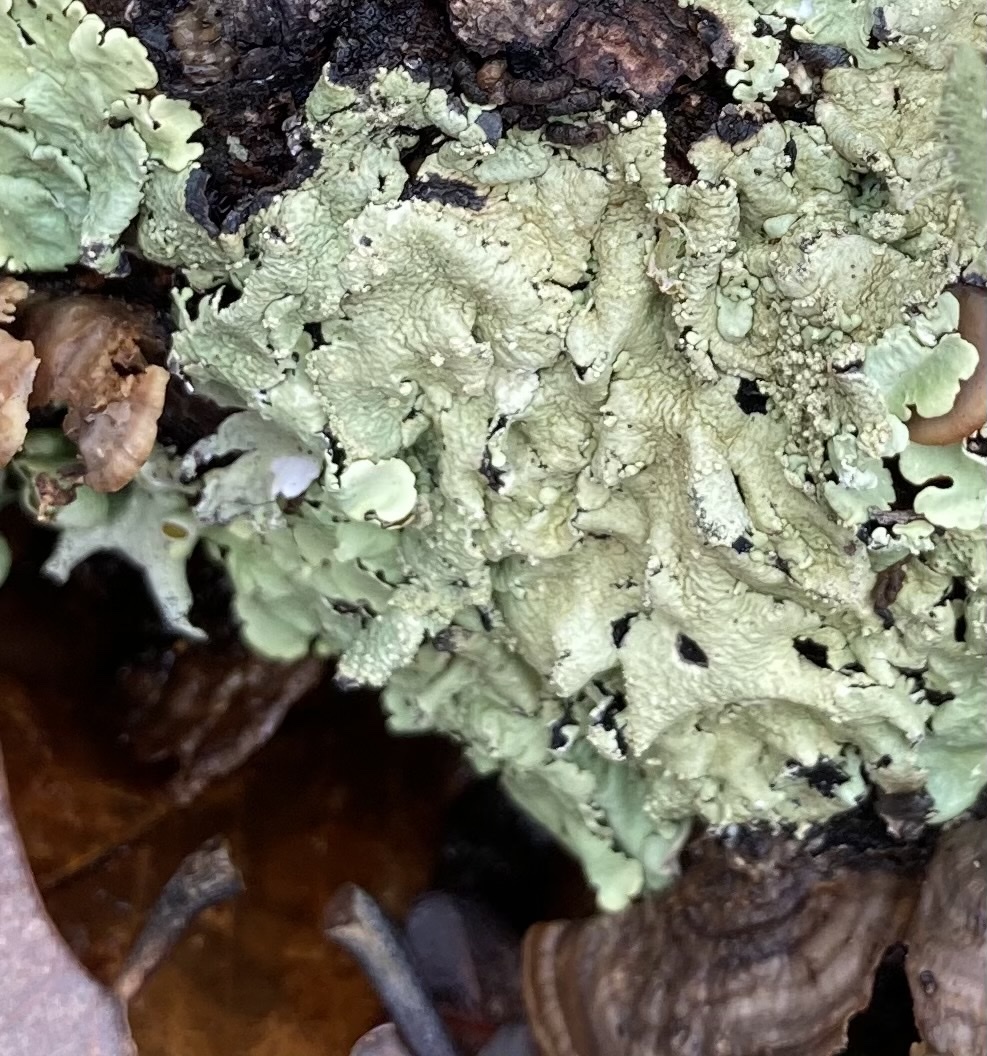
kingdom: Fungi
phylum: Ascomycota
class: Lecanoromycetes
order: Lecanorales
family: Parmeliaceae
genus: Flavoparmelia
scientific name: Flavoparmelia caperata
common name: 40-mile per hour lichen
